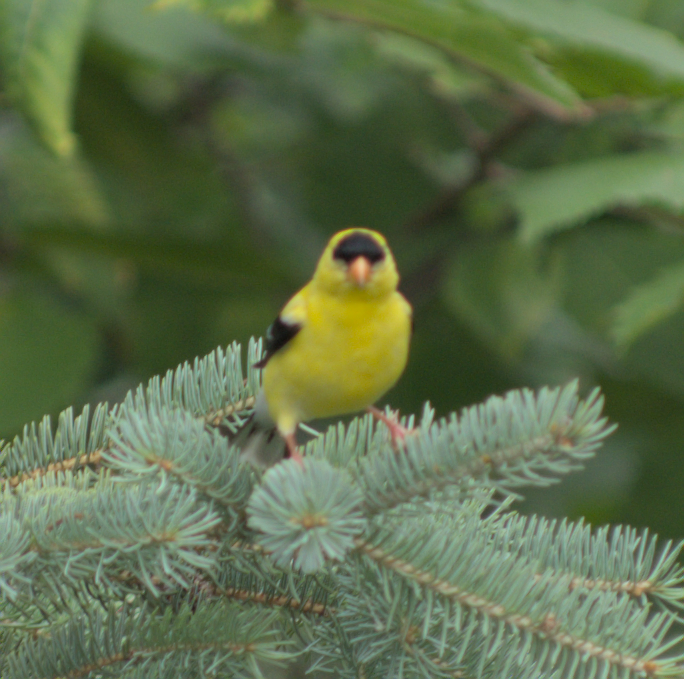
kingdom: Animalia
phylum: Chordata
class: Aves
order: Passeriformes
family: Fringillidae
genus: Spinus
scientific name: Spinus tristis
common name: American goldfinch
